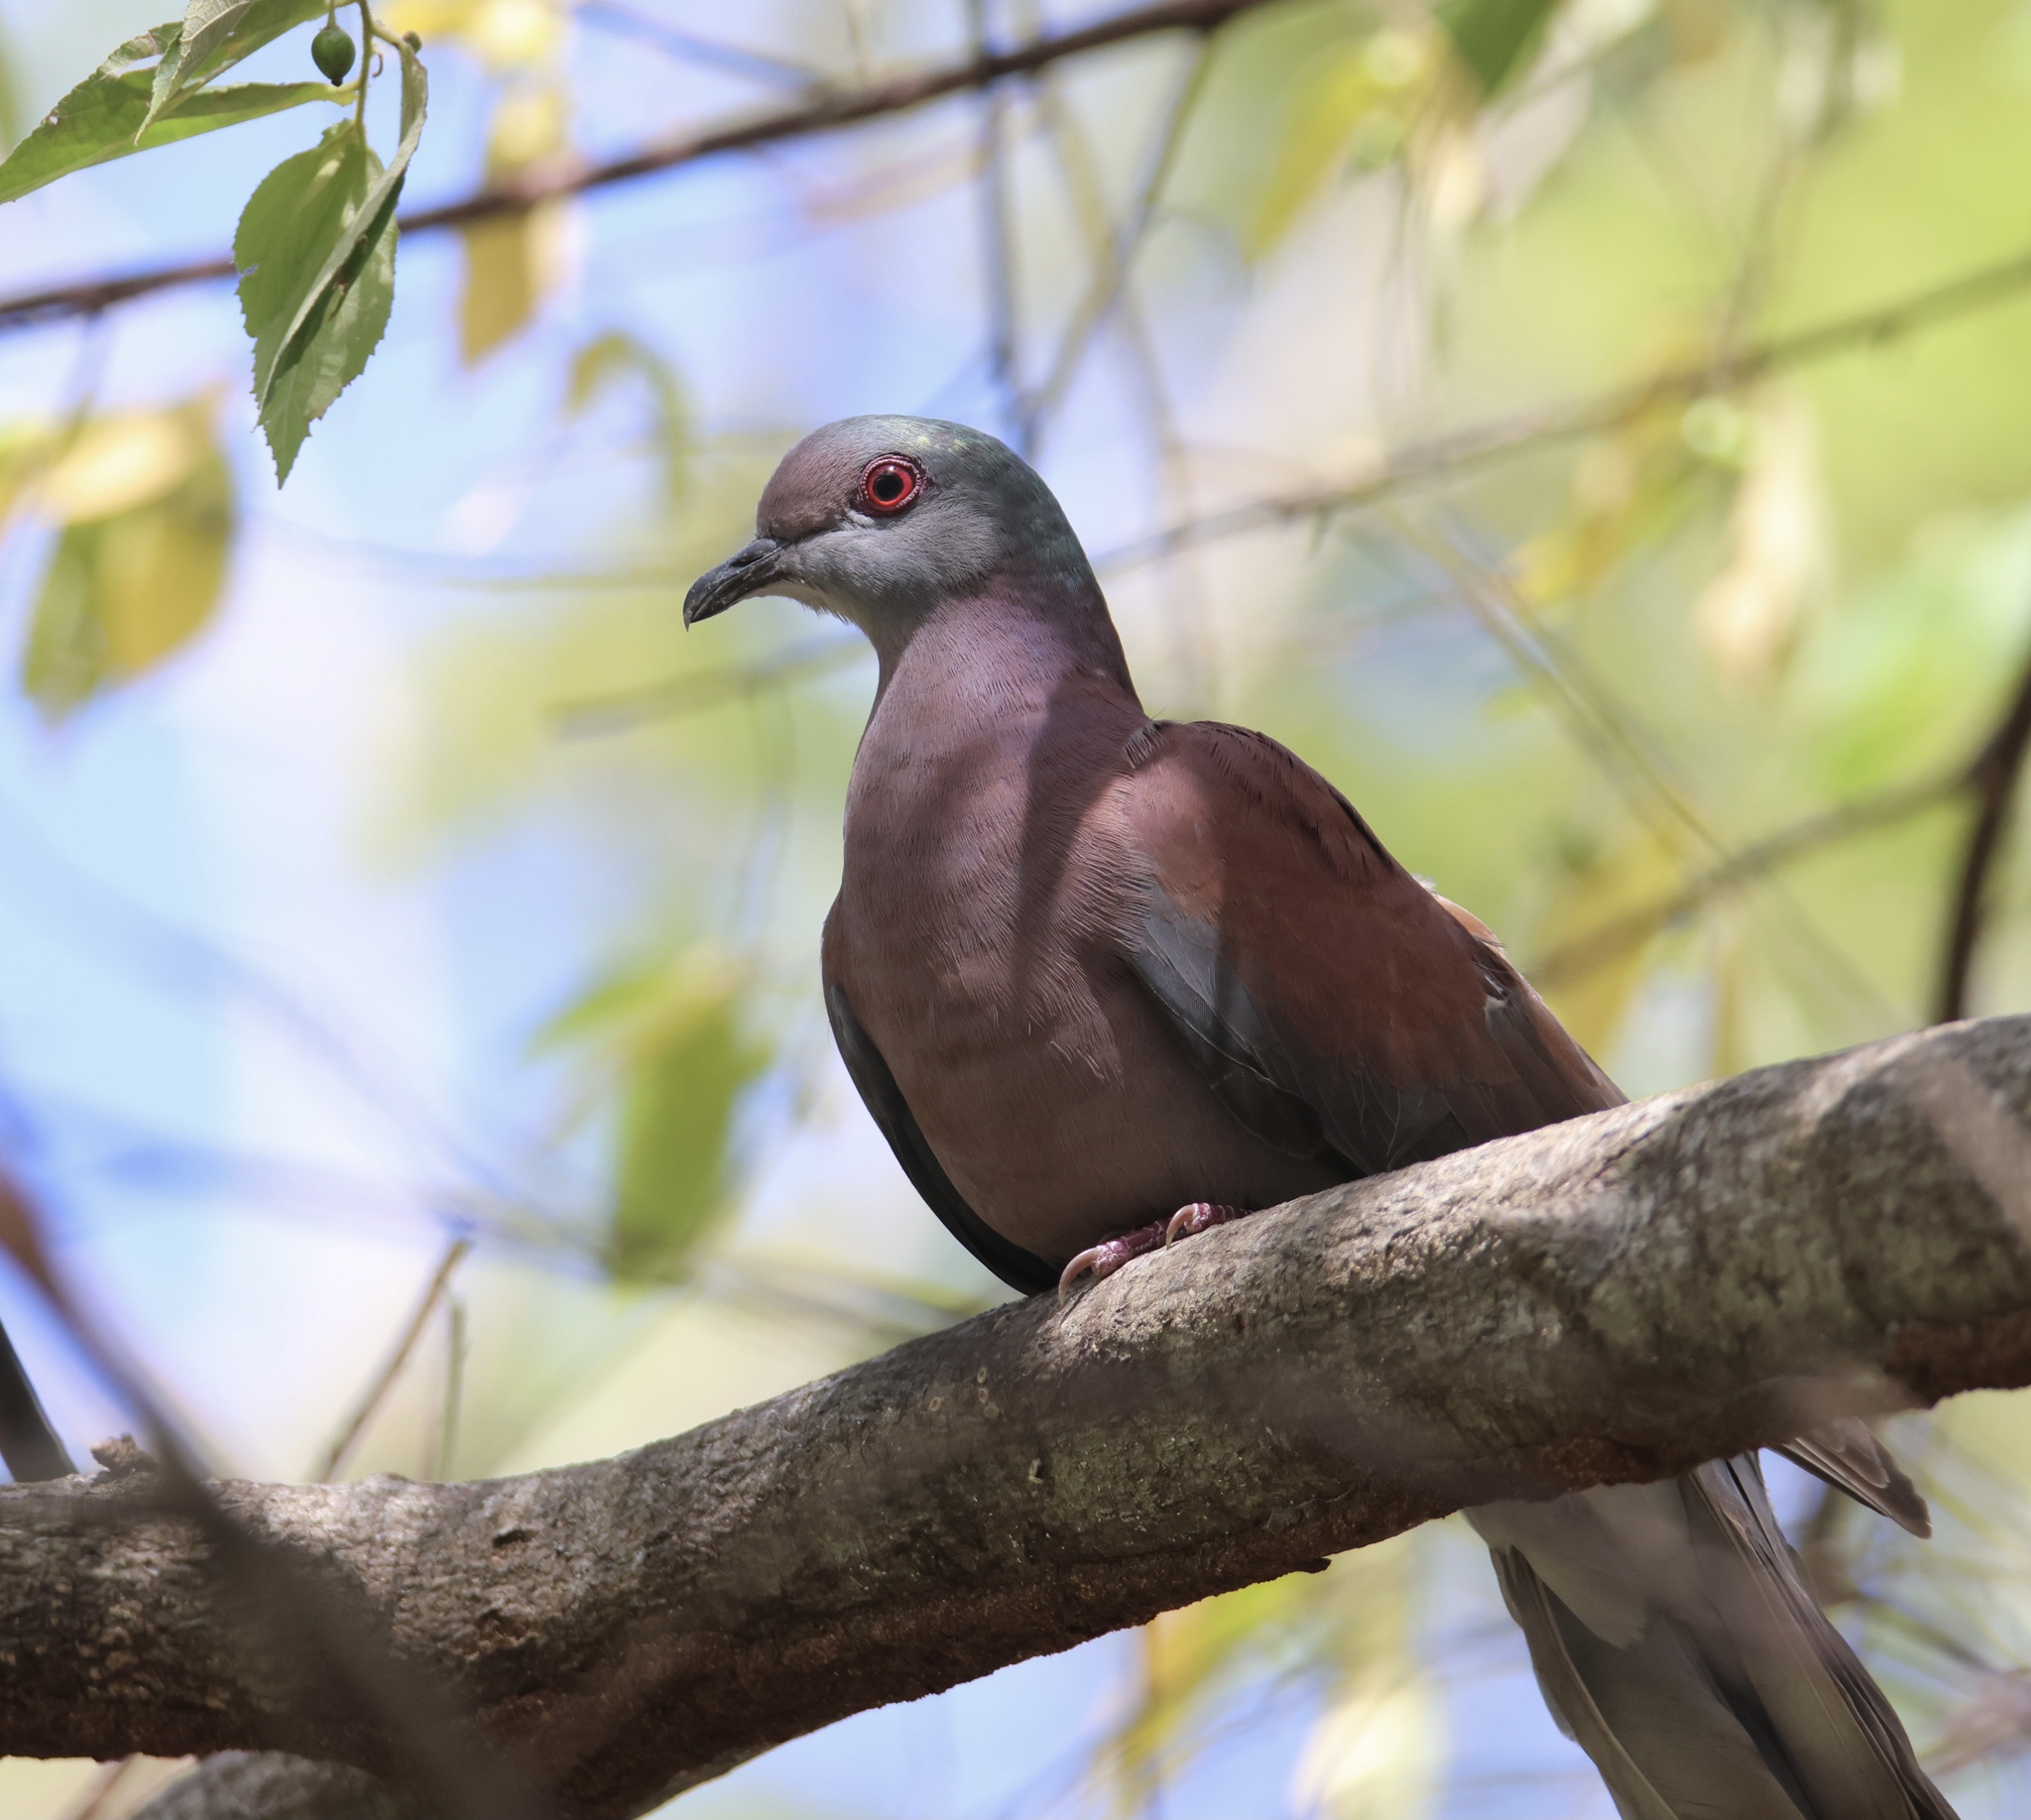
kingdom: Animalia
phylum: Chordata
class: Aves
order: Columbiformes
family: Columbidae
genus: Patagioenas
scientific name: Patagioenas cayennensis
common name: Pale-vented pigeon
